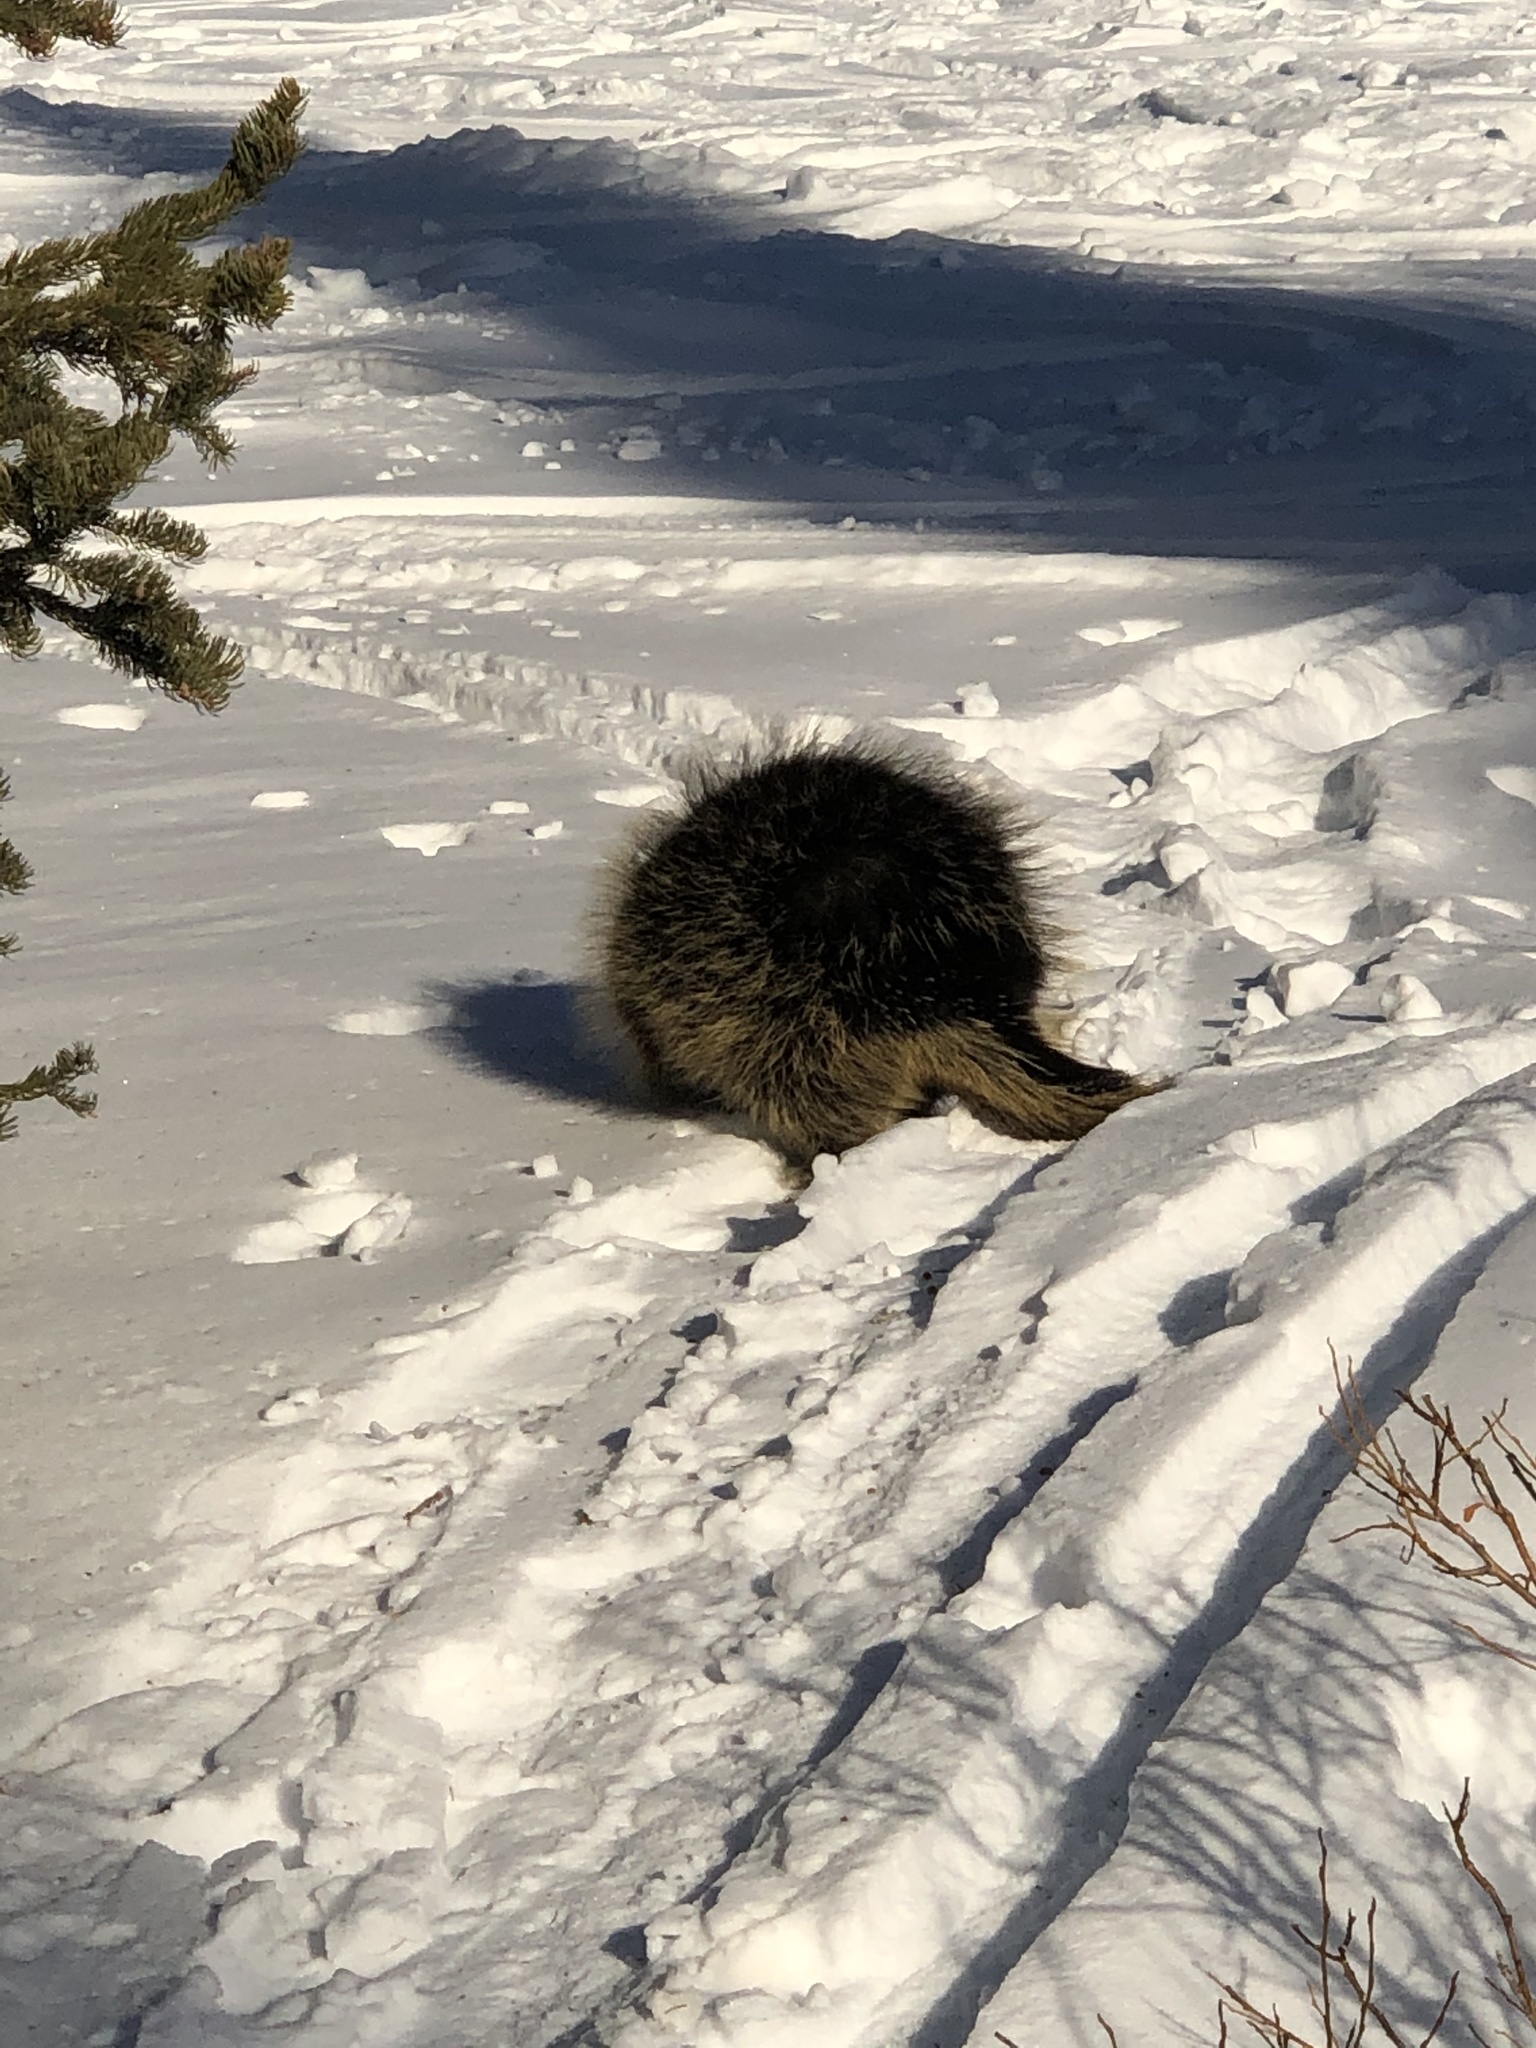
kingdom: Animalia
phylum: Chordata
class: Mammalia
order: Rodentia
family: Erethizontidae
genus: Erethizon
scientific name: Erethizon dorsatus
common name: North american porcupine
